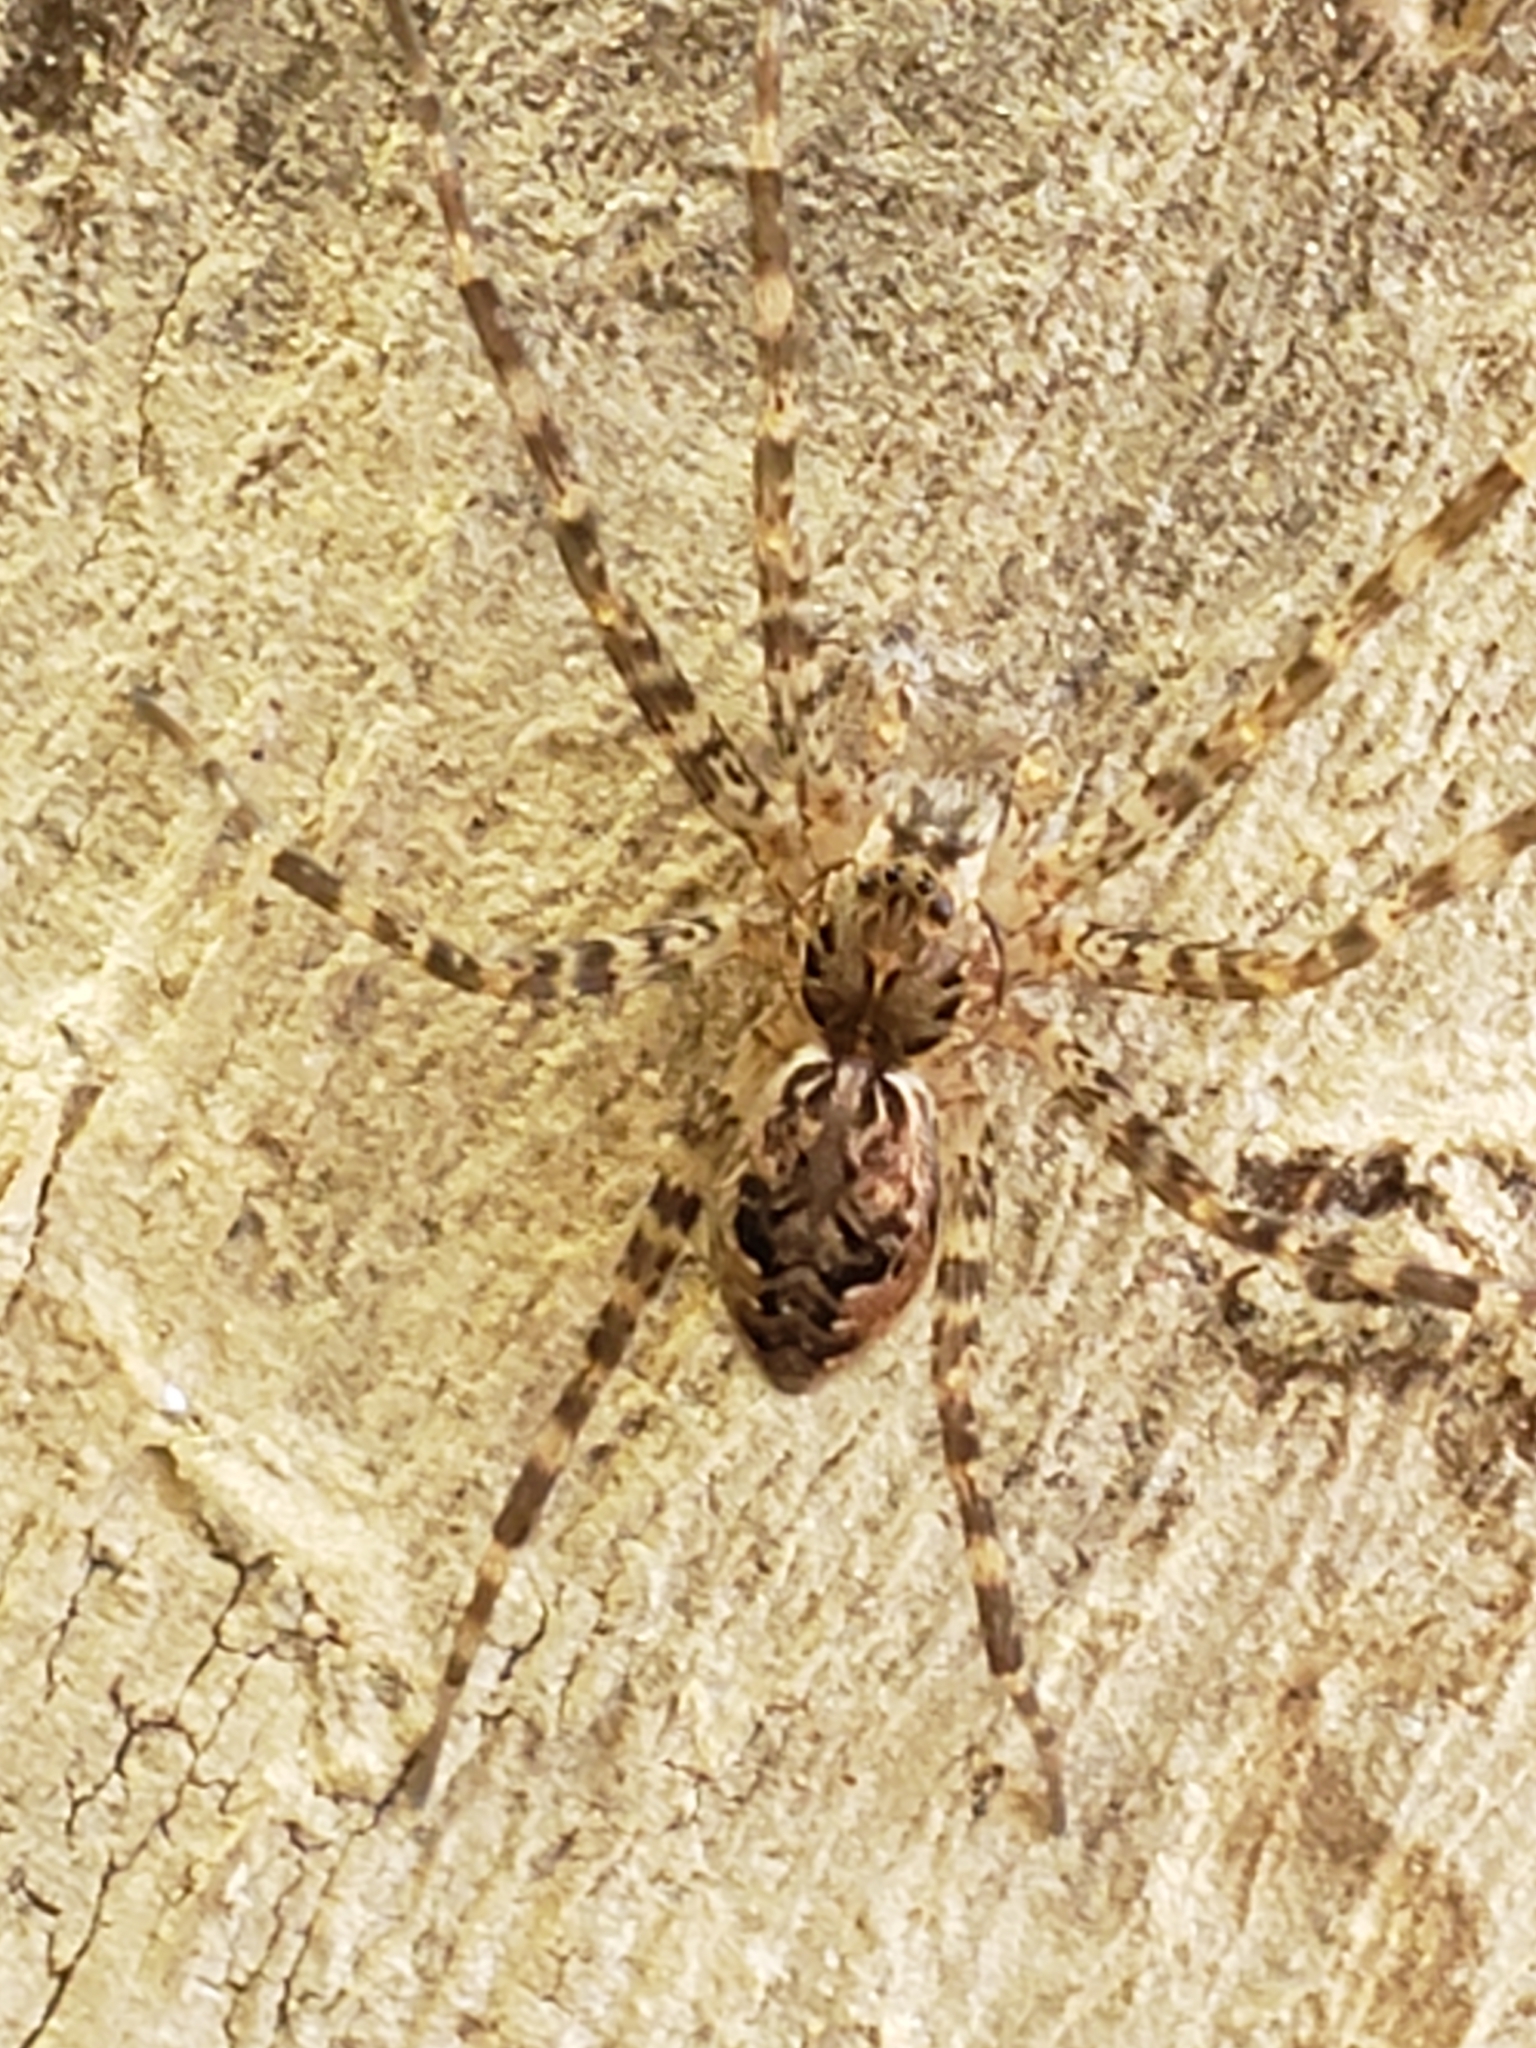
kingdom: Animalia
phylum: Arthropoda
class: Arachnida
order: Araneae
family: Pisauridae
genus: Dolomedes
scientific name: Dolomedes tenebrosus
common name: Dark fishing spider
